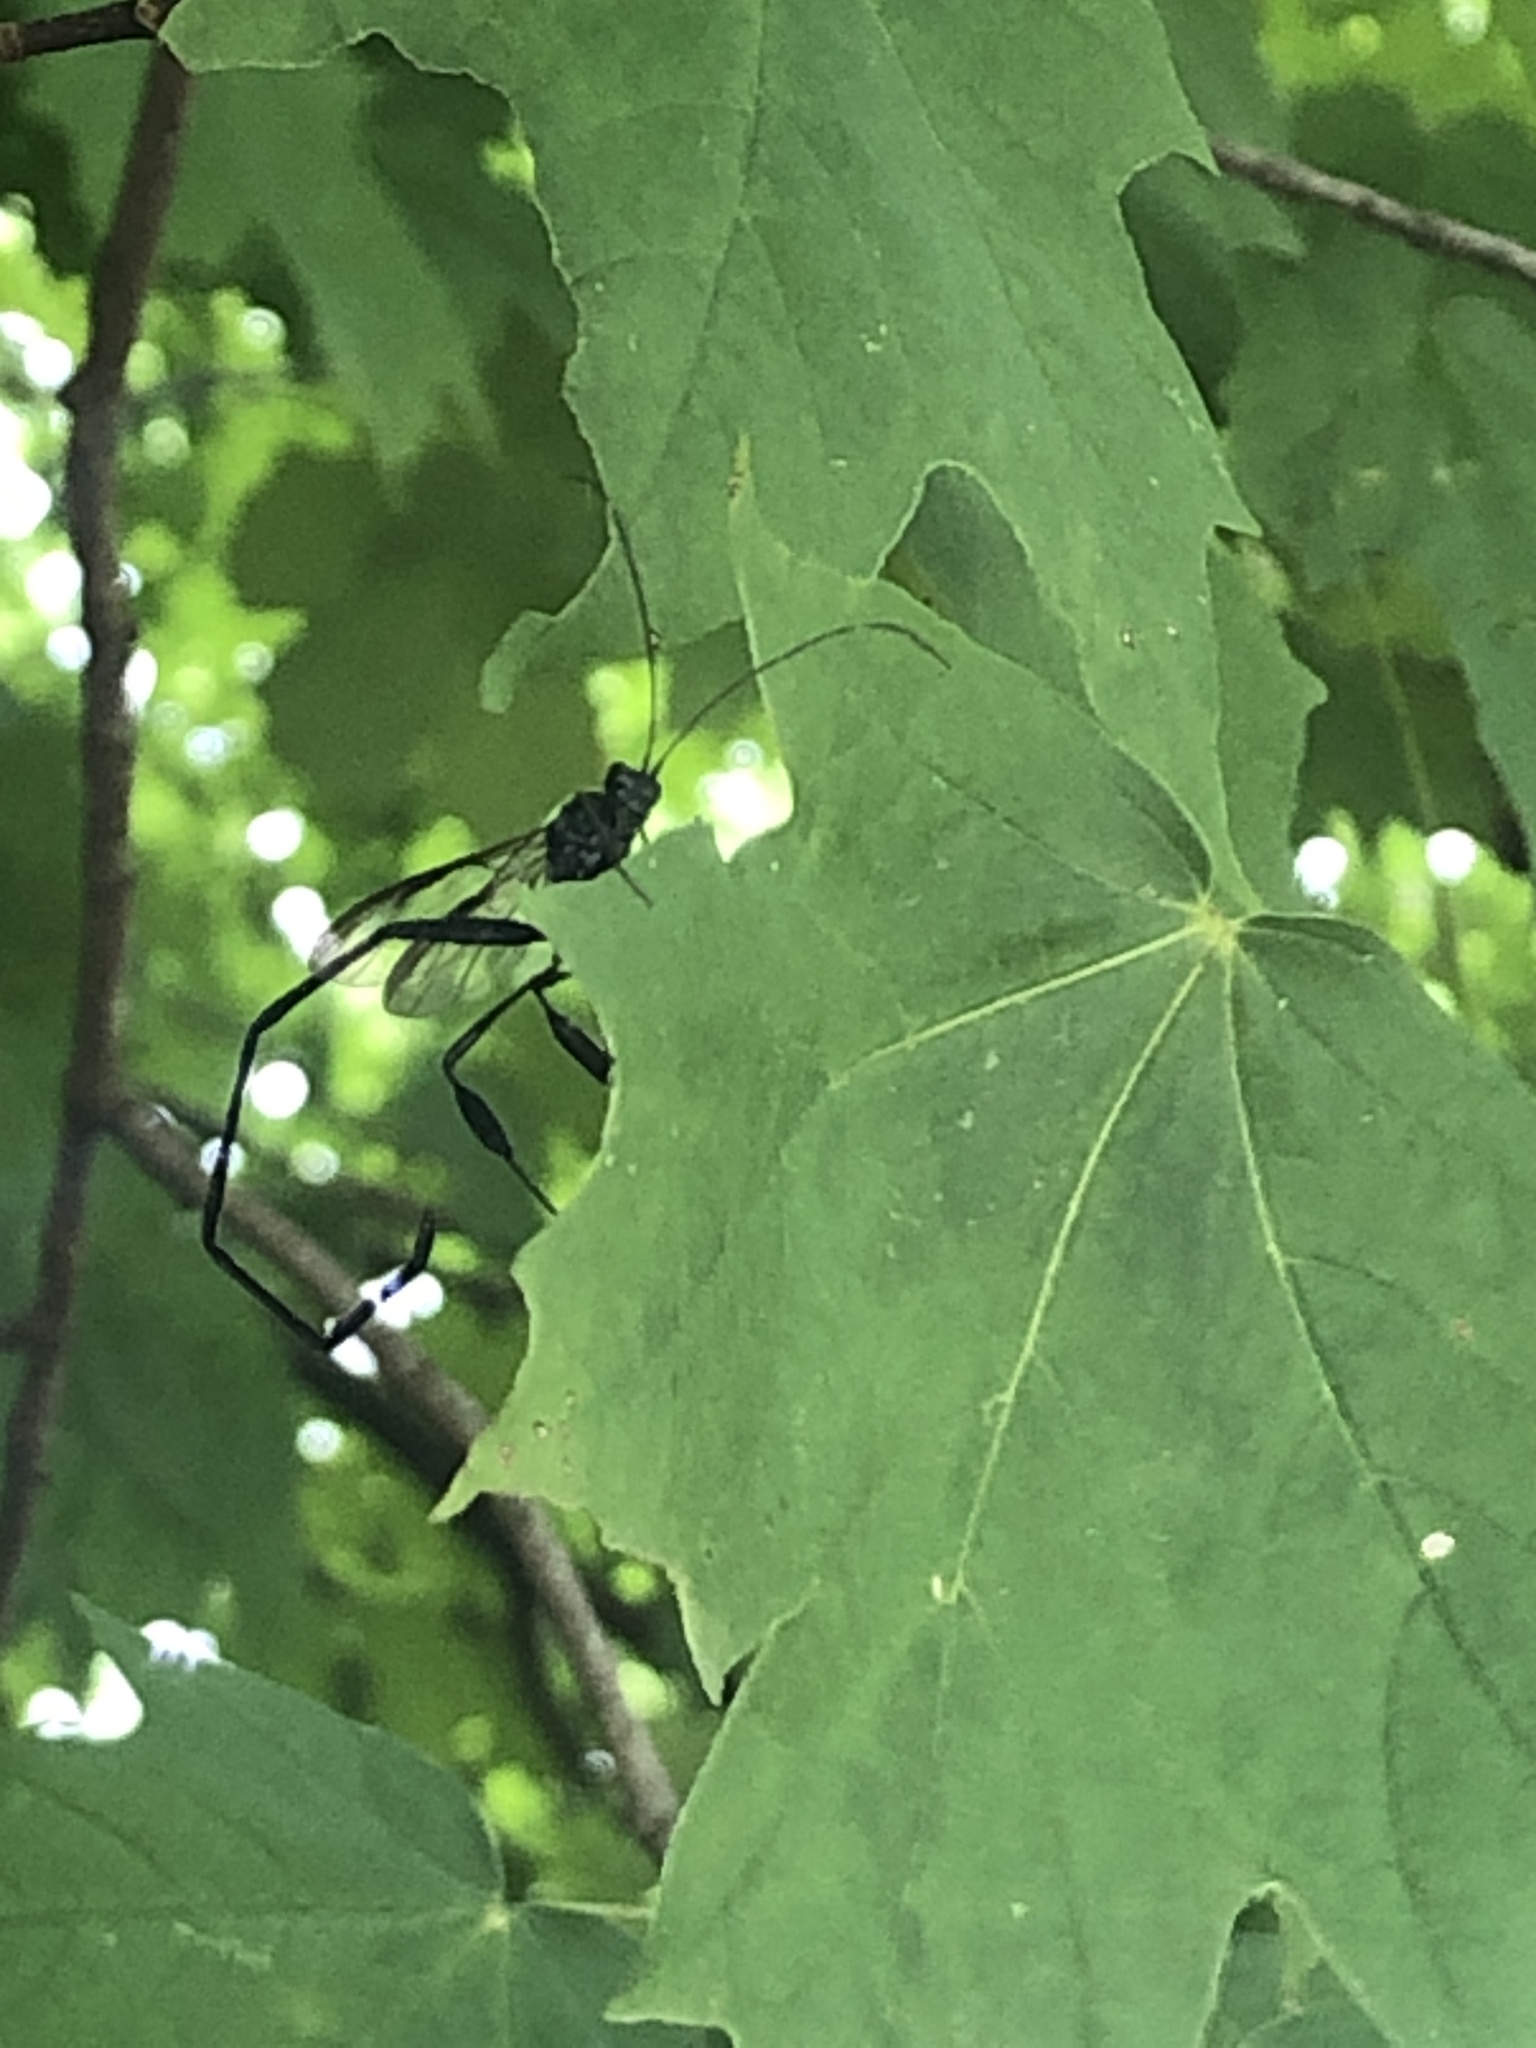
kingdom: Animalia
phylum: Arthropoda
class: Insecta
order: Hymenoptera
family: Pelecinidae
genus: Pelecinus
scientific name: Pelecinus polyturator
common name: American pelecinid wasp
